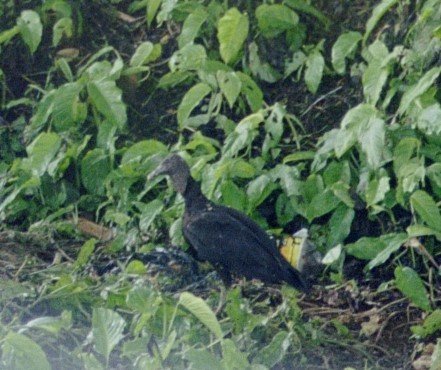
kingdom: Animalia
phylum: Chordata
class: Aves
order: Accipitriformes
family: Cathartidae
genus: Coragyps
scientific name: Coragyps atratus
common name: Black vulture
